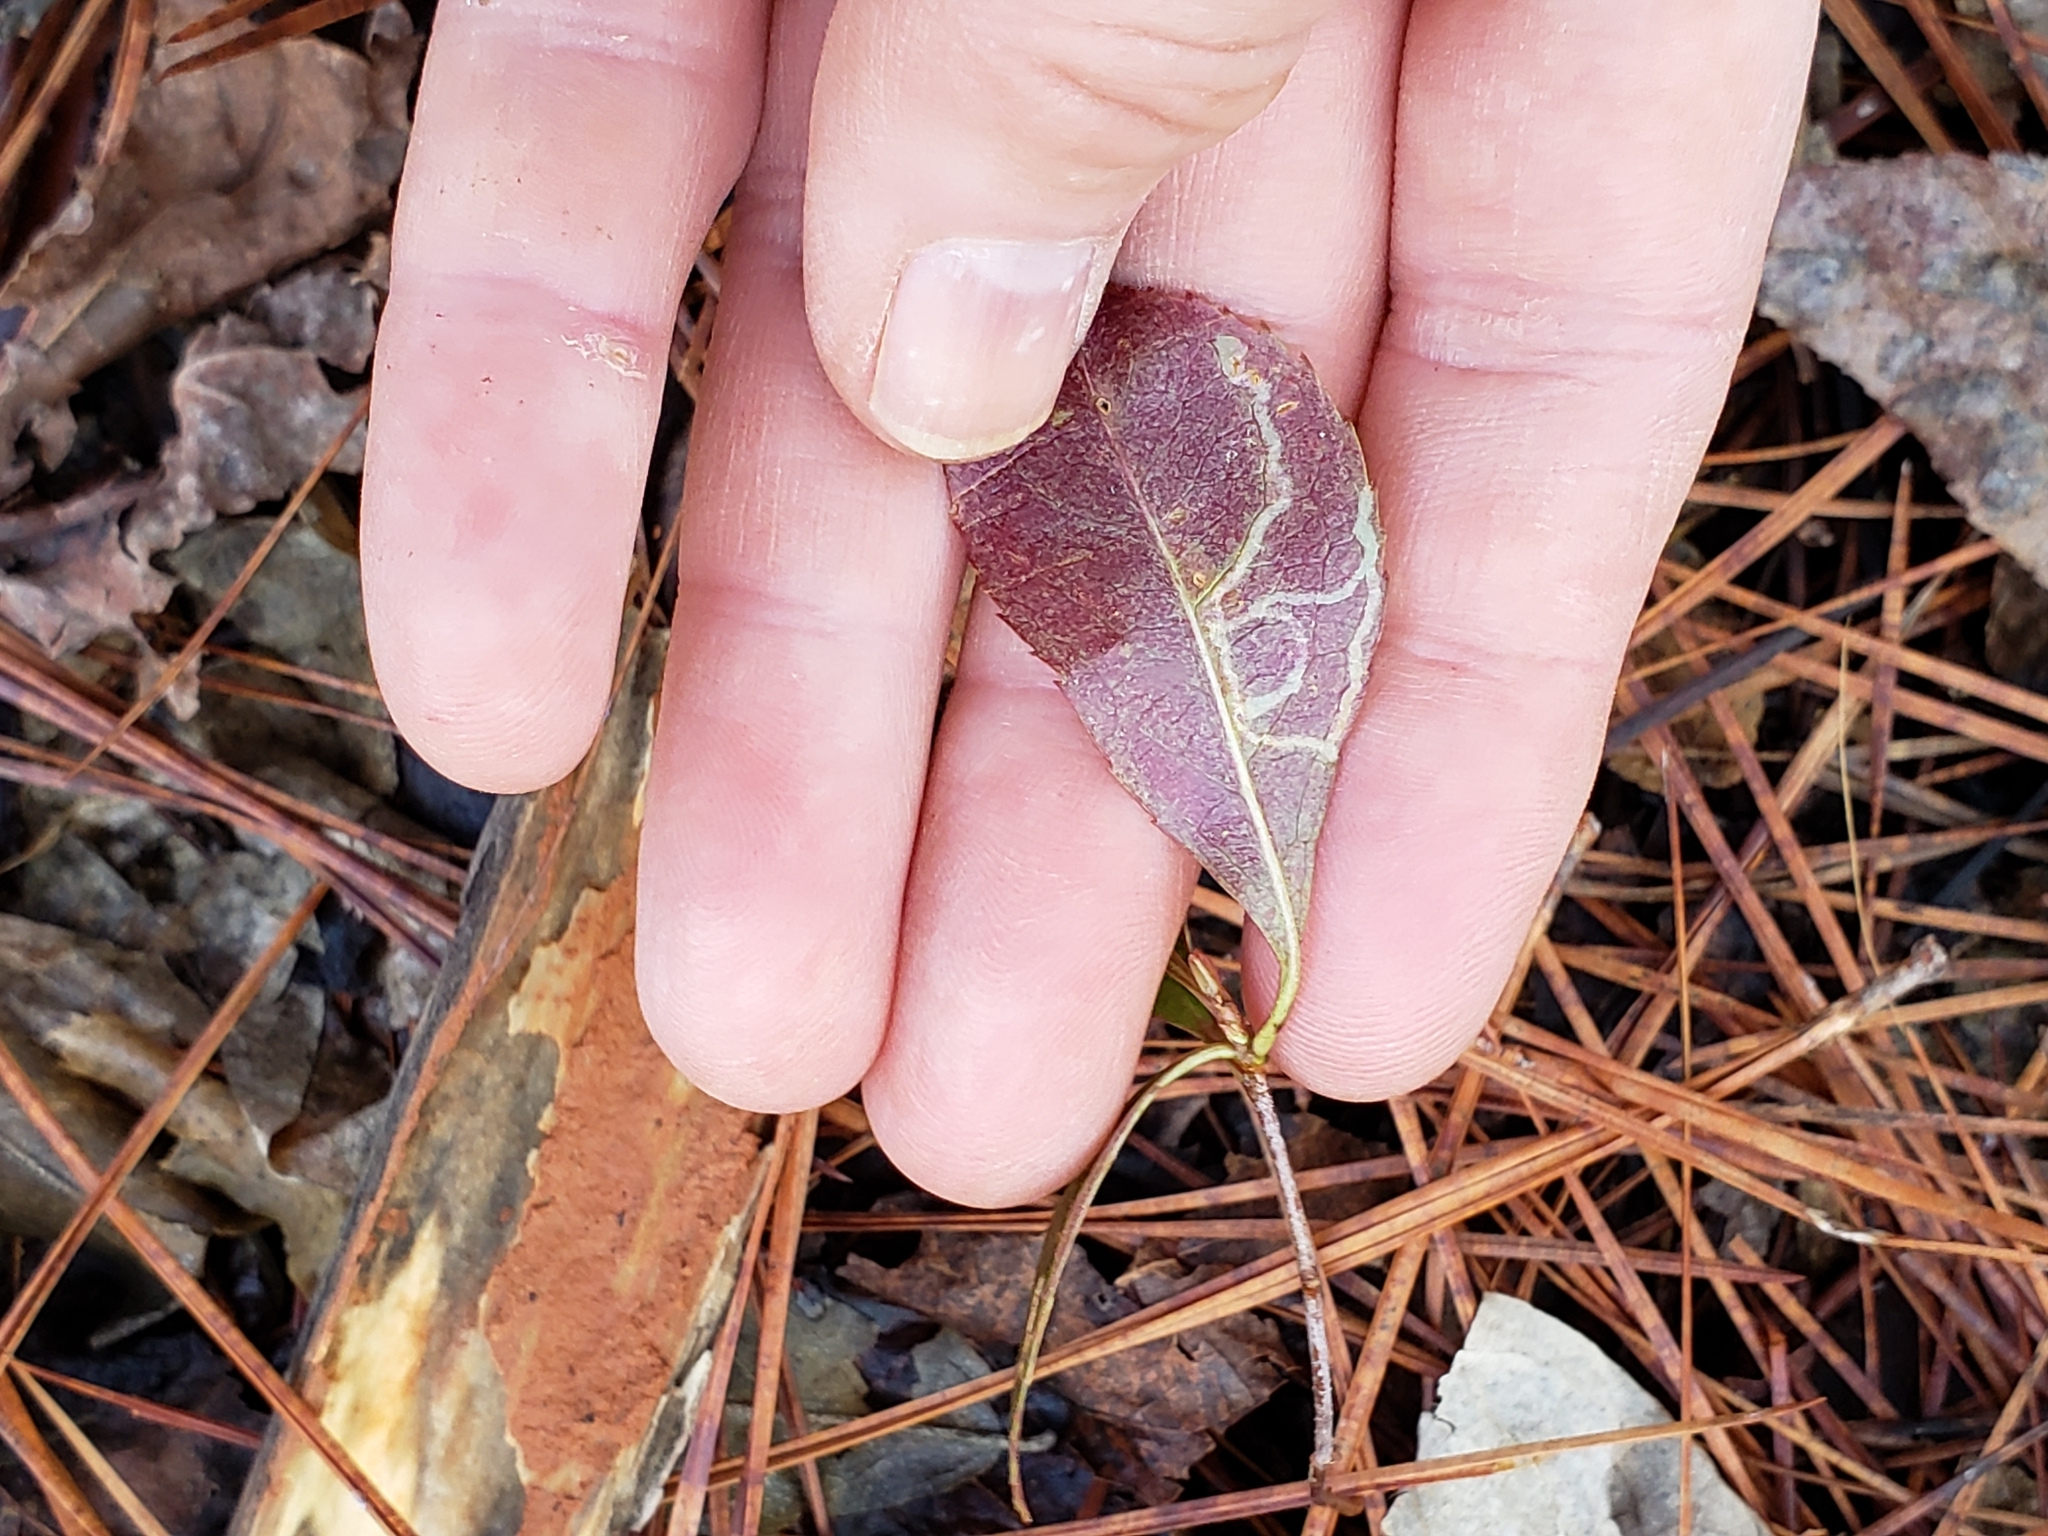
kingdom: Plantae
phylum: Tracheophyta
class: Magnoliopsida
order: Rosales
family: Rosaceae
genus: Prunus
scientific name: Prunus serotina
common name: Black cherry
